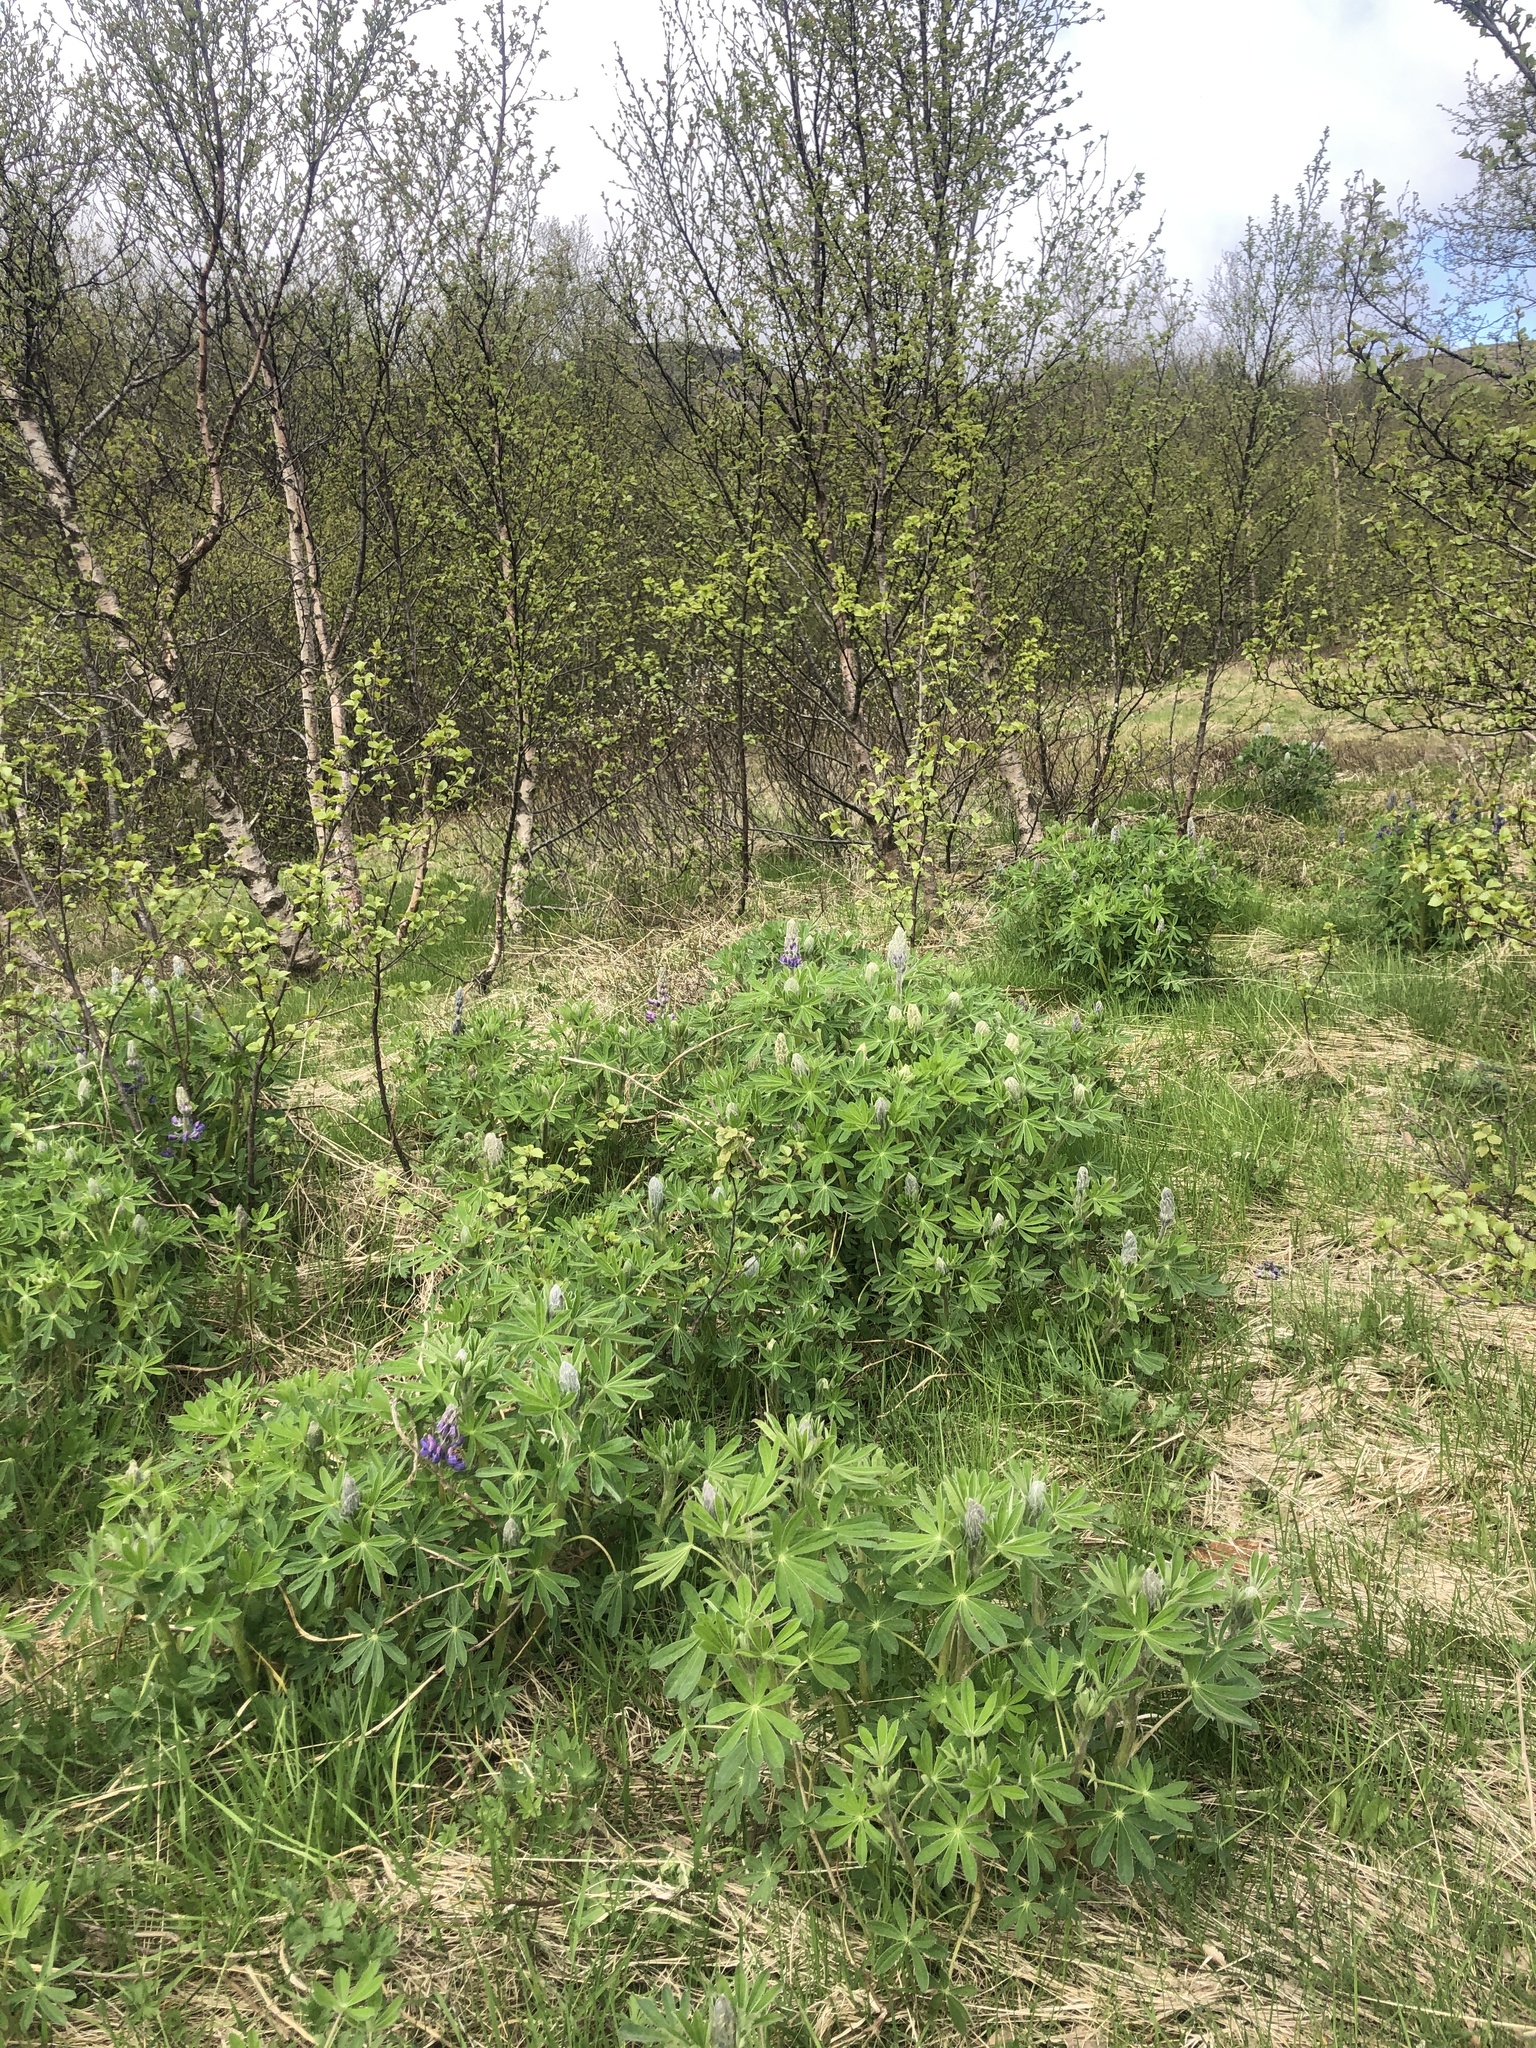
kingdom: Plantae
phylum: Tracheophyta
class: Magnoliopsida
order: Fabales
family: Fabaceae
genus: Lupinus
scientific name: Lupinus nootkatensis
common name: Nootka lupine
